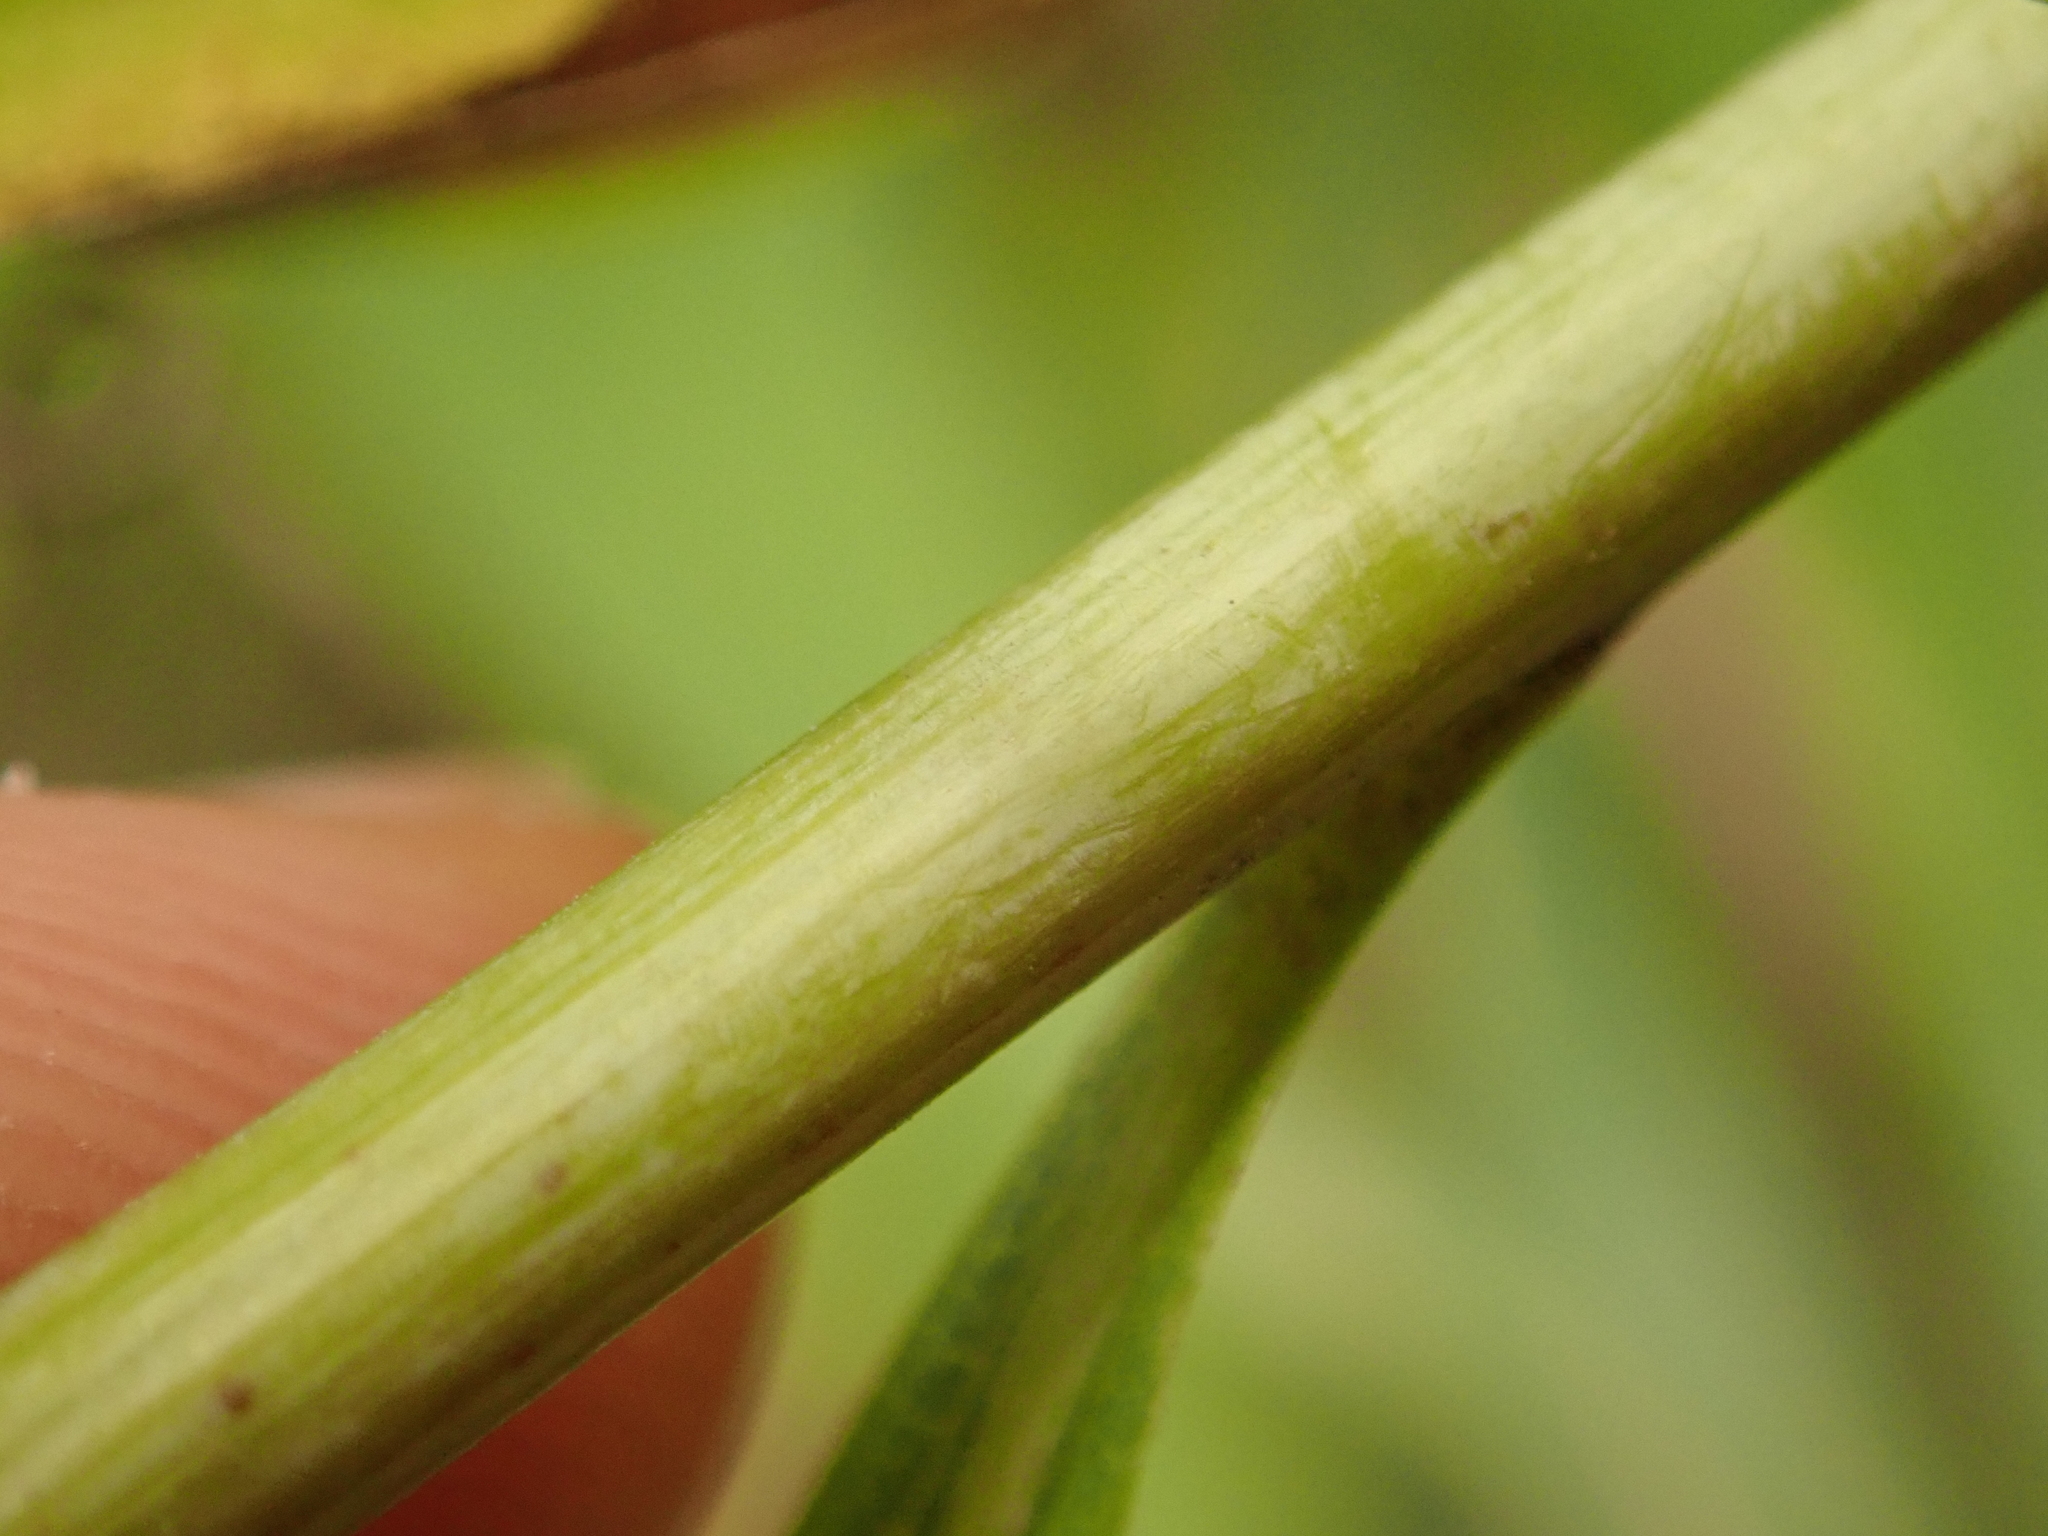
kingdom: Plantae
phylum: Tracheophyta
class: Magnoliopsida
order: Asterales
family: Asteraceae
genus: Solidago
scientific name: Solidago gigantea
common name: Giant goldenrod
